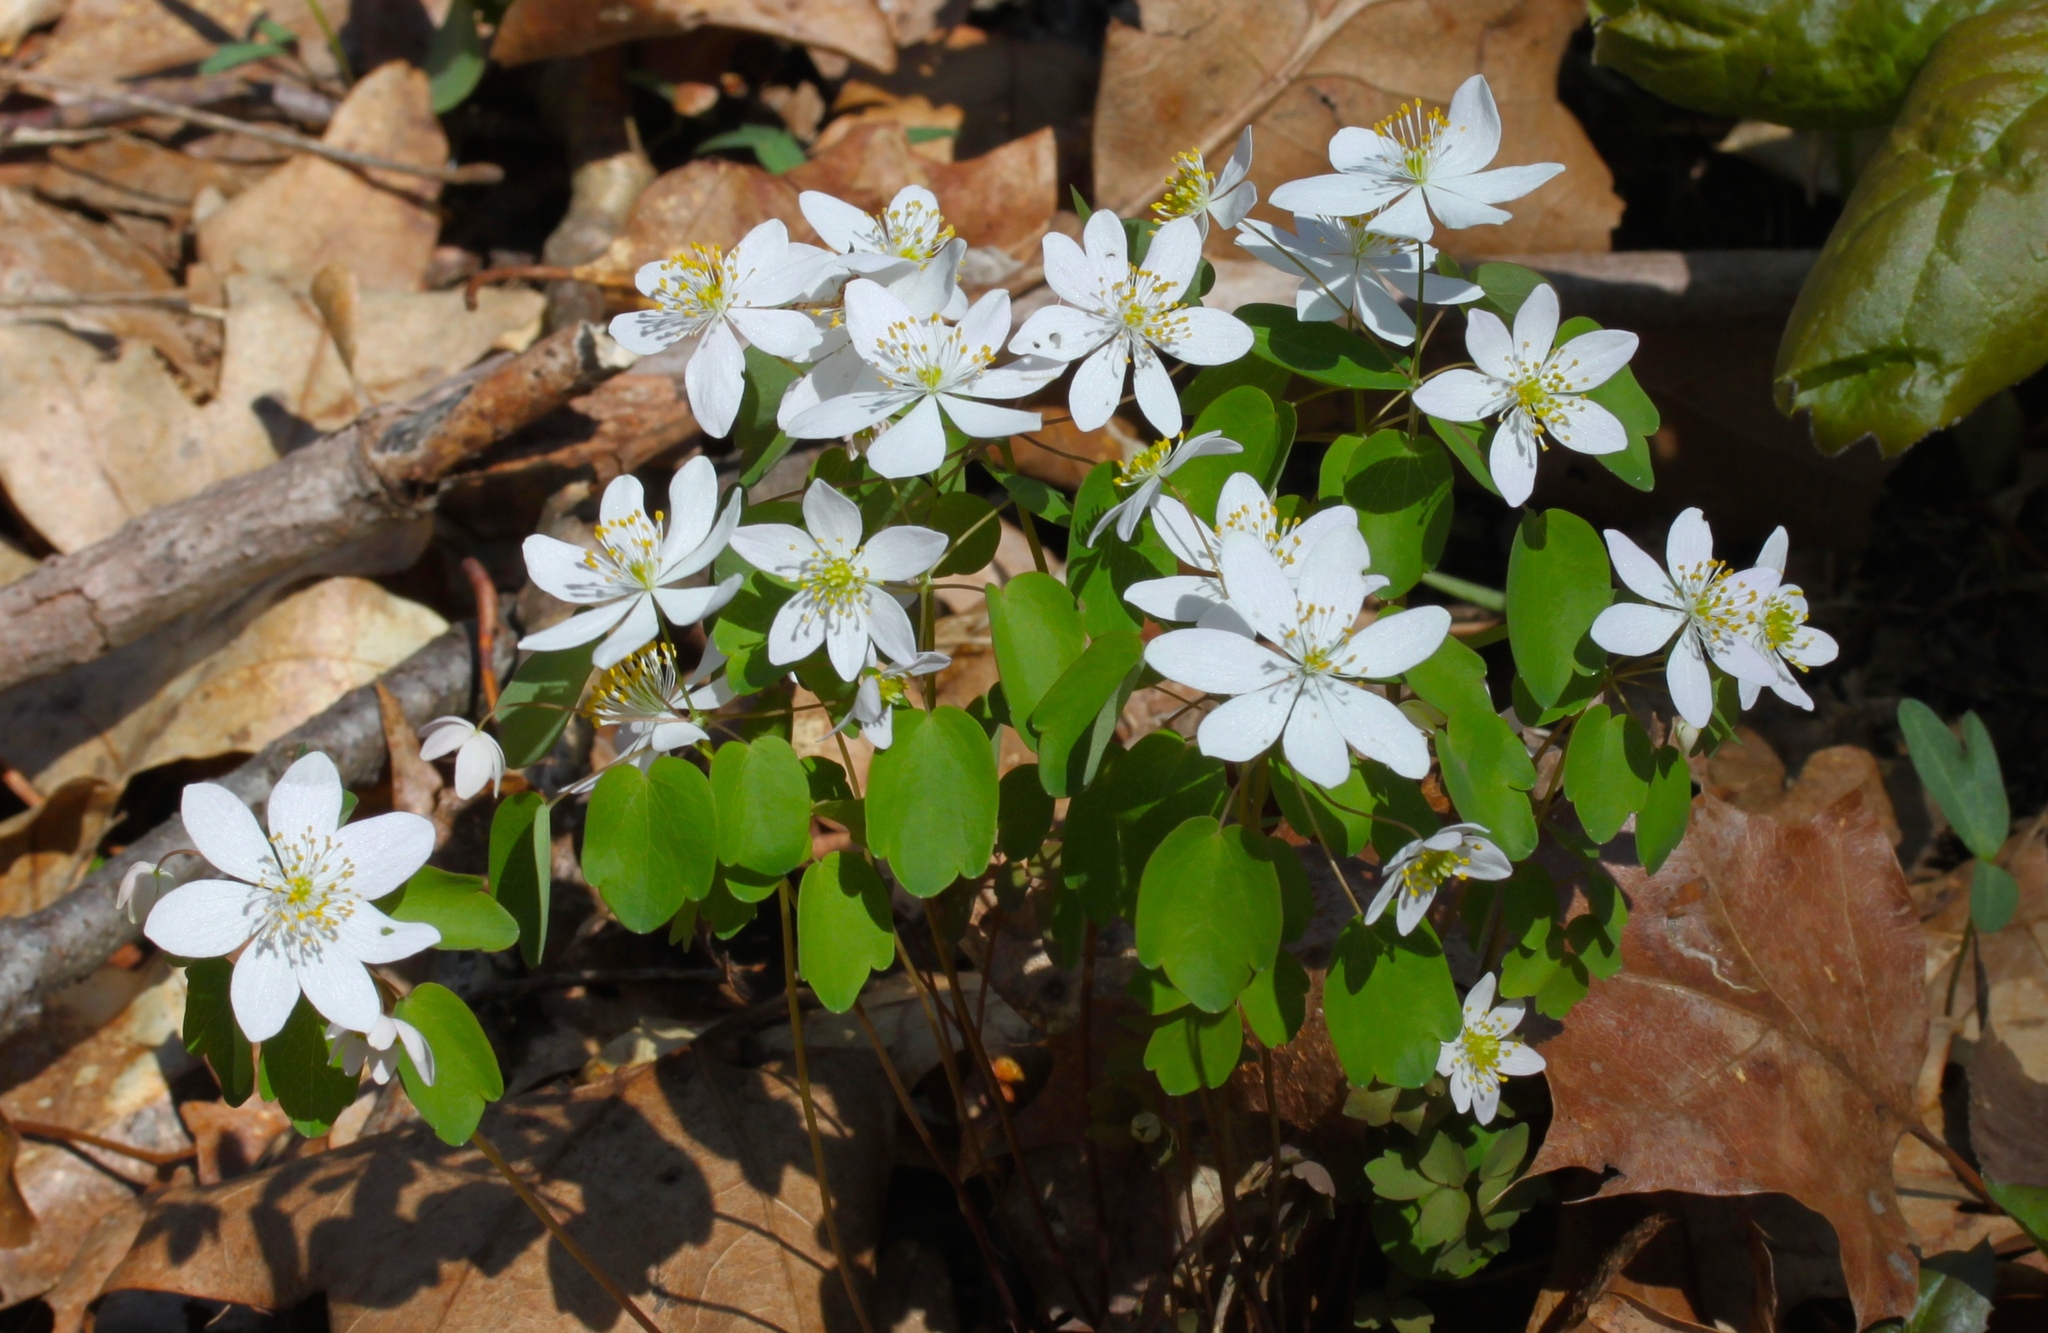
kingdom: Plantae
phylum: Tracheophyta
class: Magnoliopsida
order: Ranunculales
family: Ranunculaceae
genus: Thalictrum
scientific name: Thalictrum thalictroides
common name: Rue-anemone
